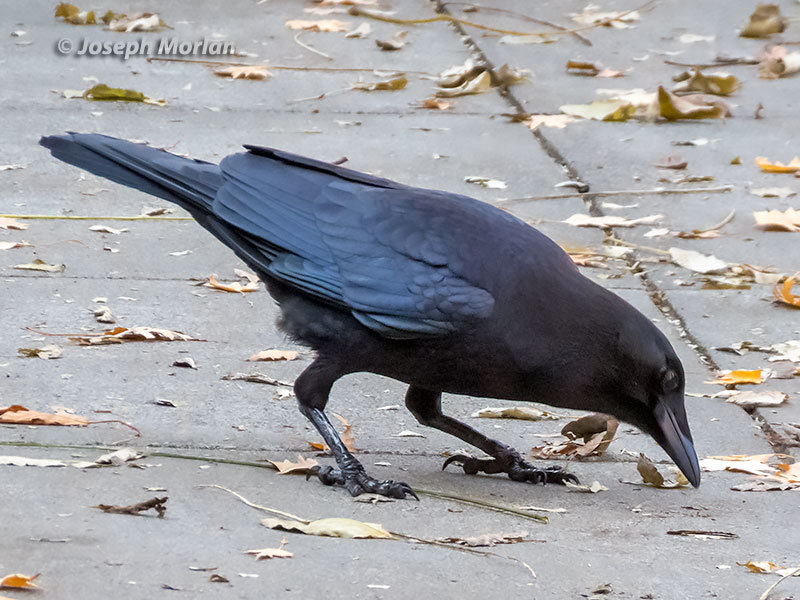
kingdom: Animalia
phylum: Chordata
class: Aves
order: Passeriformes
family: Corvidae
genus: Corvus
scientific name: Corvus brachyrhynchos
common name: American crow
